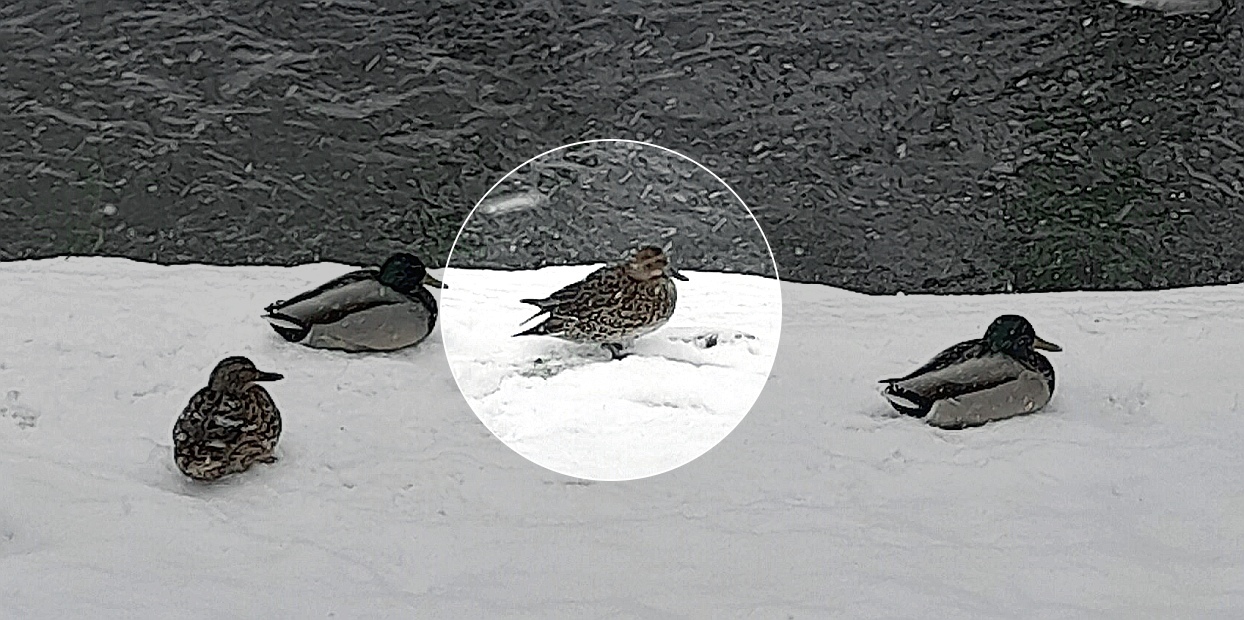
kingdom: Animalia
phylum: Chordata
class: Aves
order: Anseriformes
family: Anatidae
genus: Anas
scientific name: Anas acuta
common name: Northern pintail
